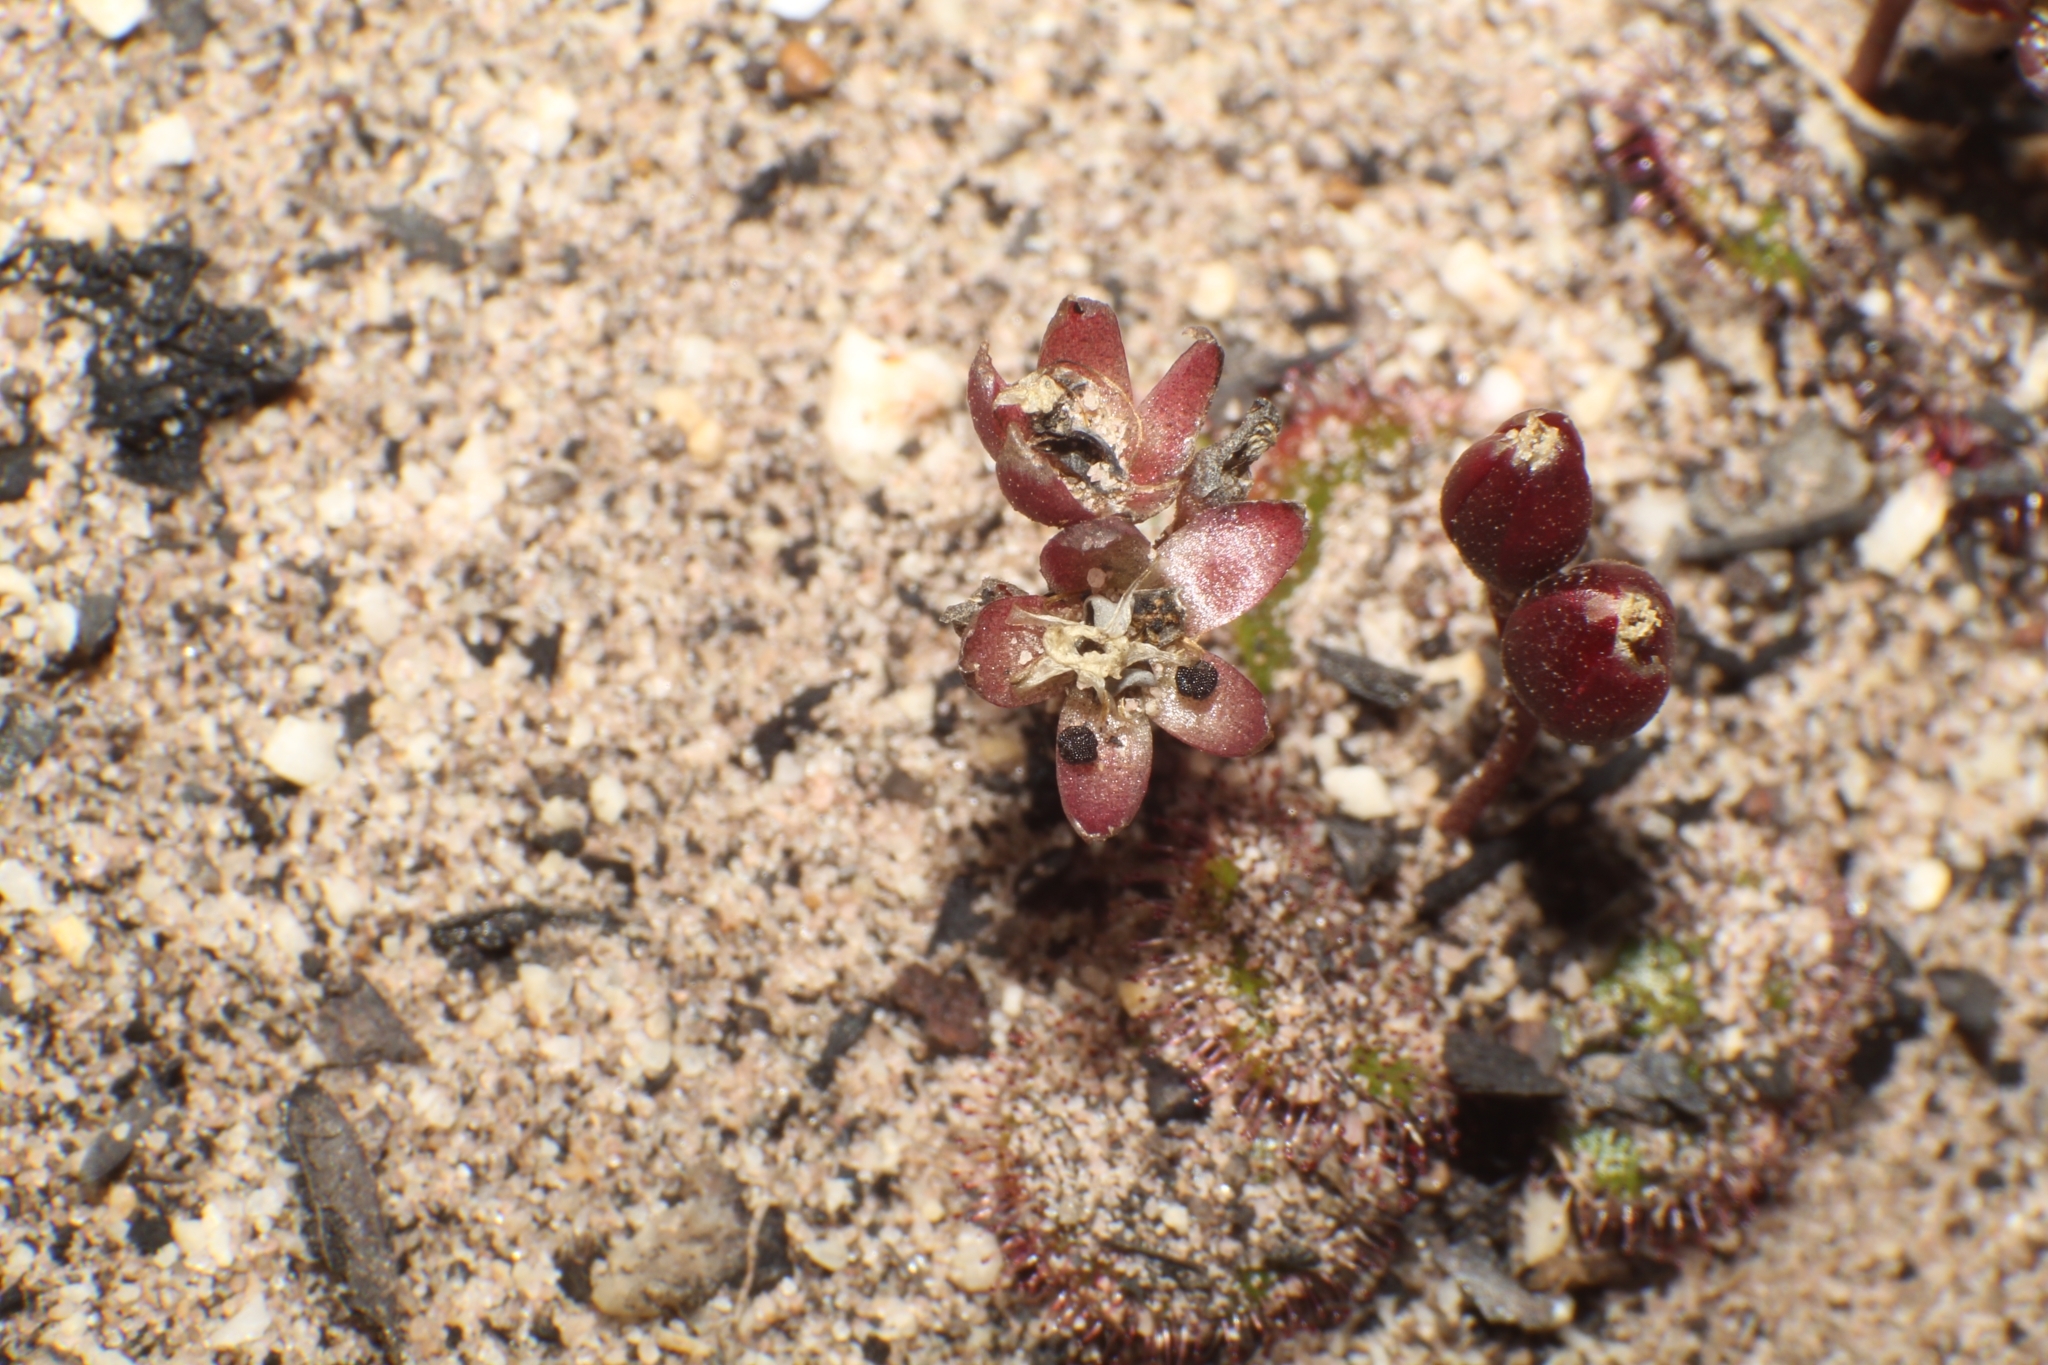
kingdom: Plantae
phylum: Tracheophyta
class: Magnoliopsida
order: Caryophyllales
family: Droseraceae
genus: Drosera
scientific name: Drosera erythrorhiza
